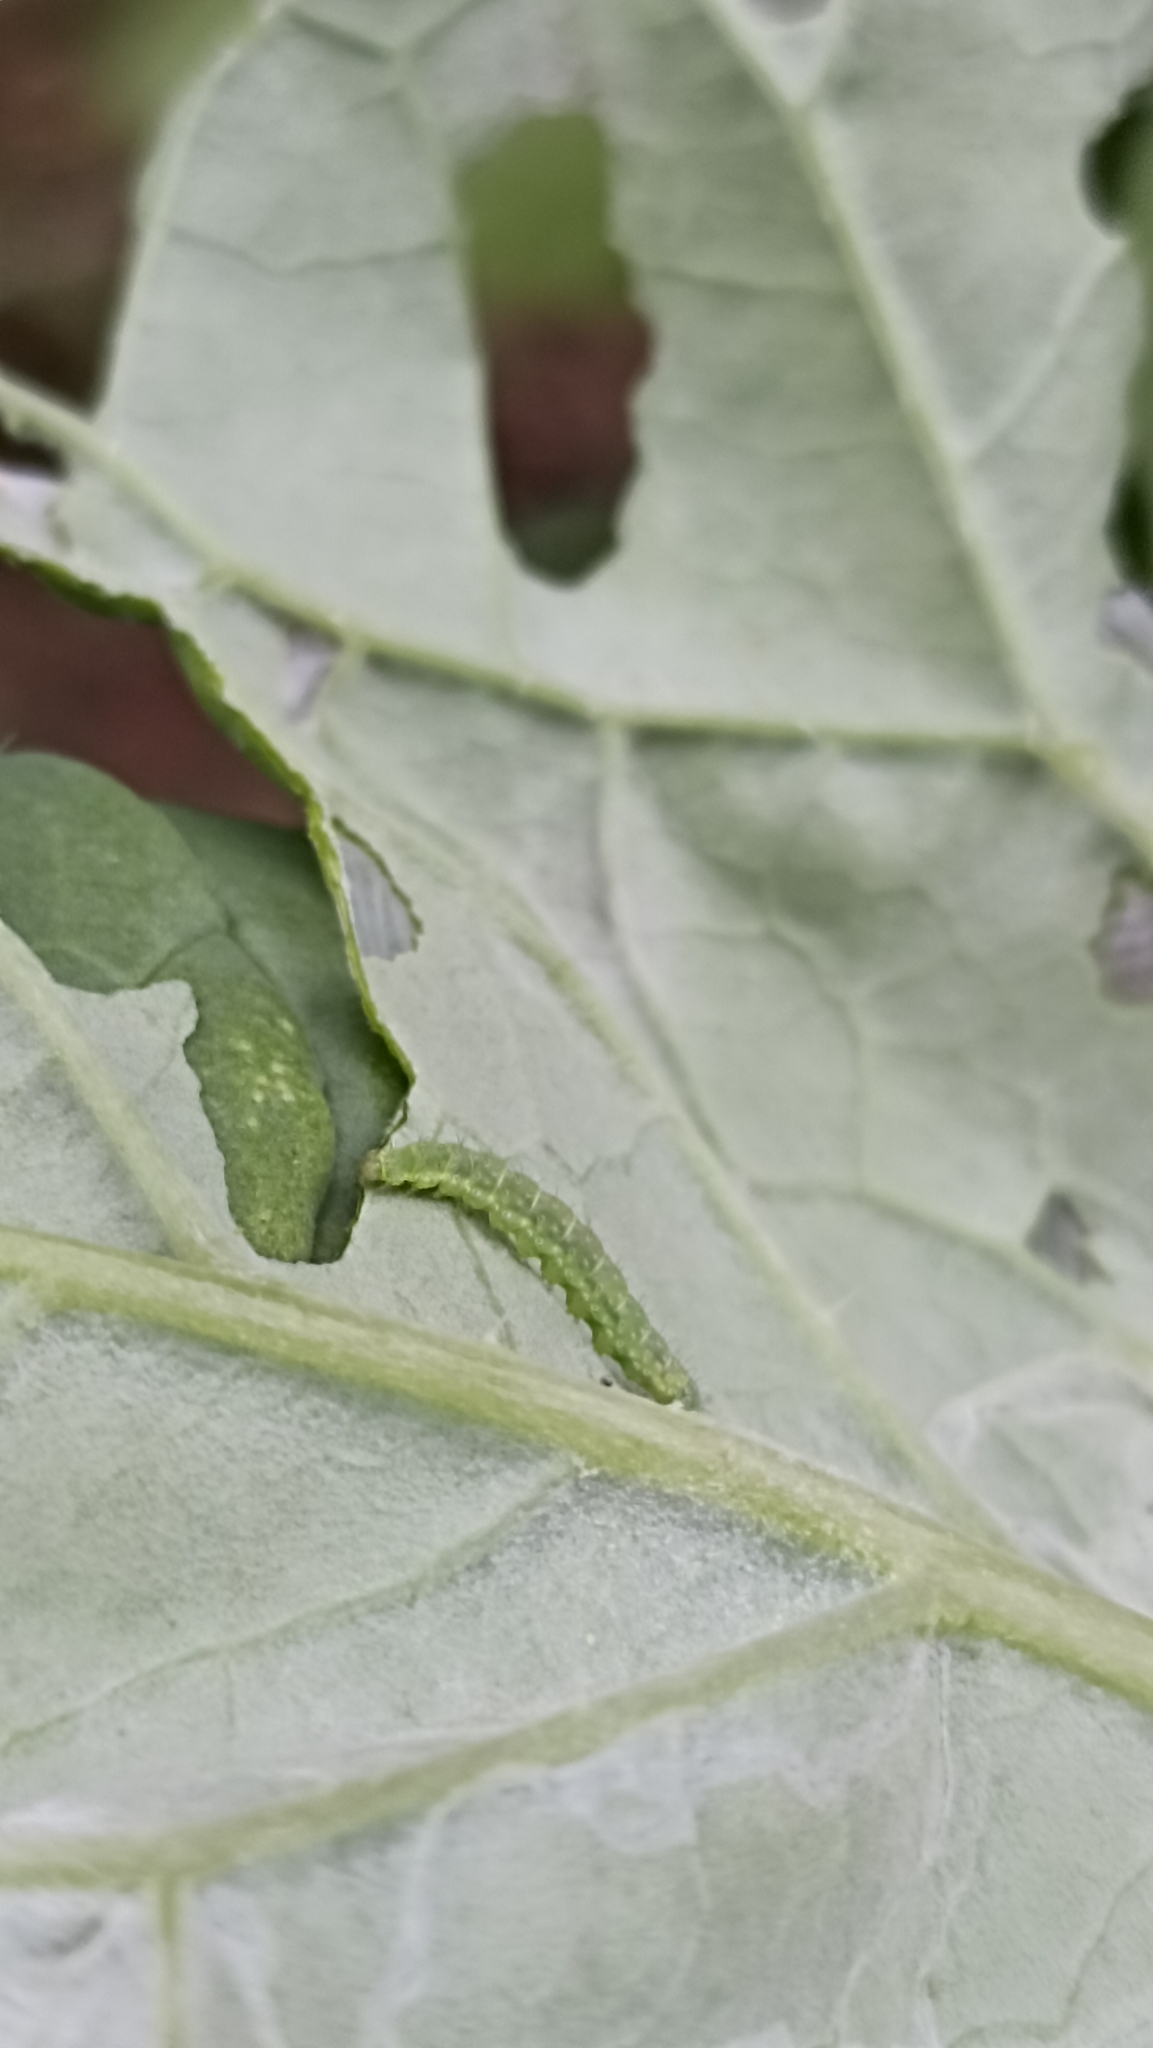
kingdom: Animalia
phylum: Arthropoda
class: Insecta
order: Lepidoptera
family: Plutellidae
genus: Plutella
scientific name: Plutella xylostella
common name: Diamond-back moth
